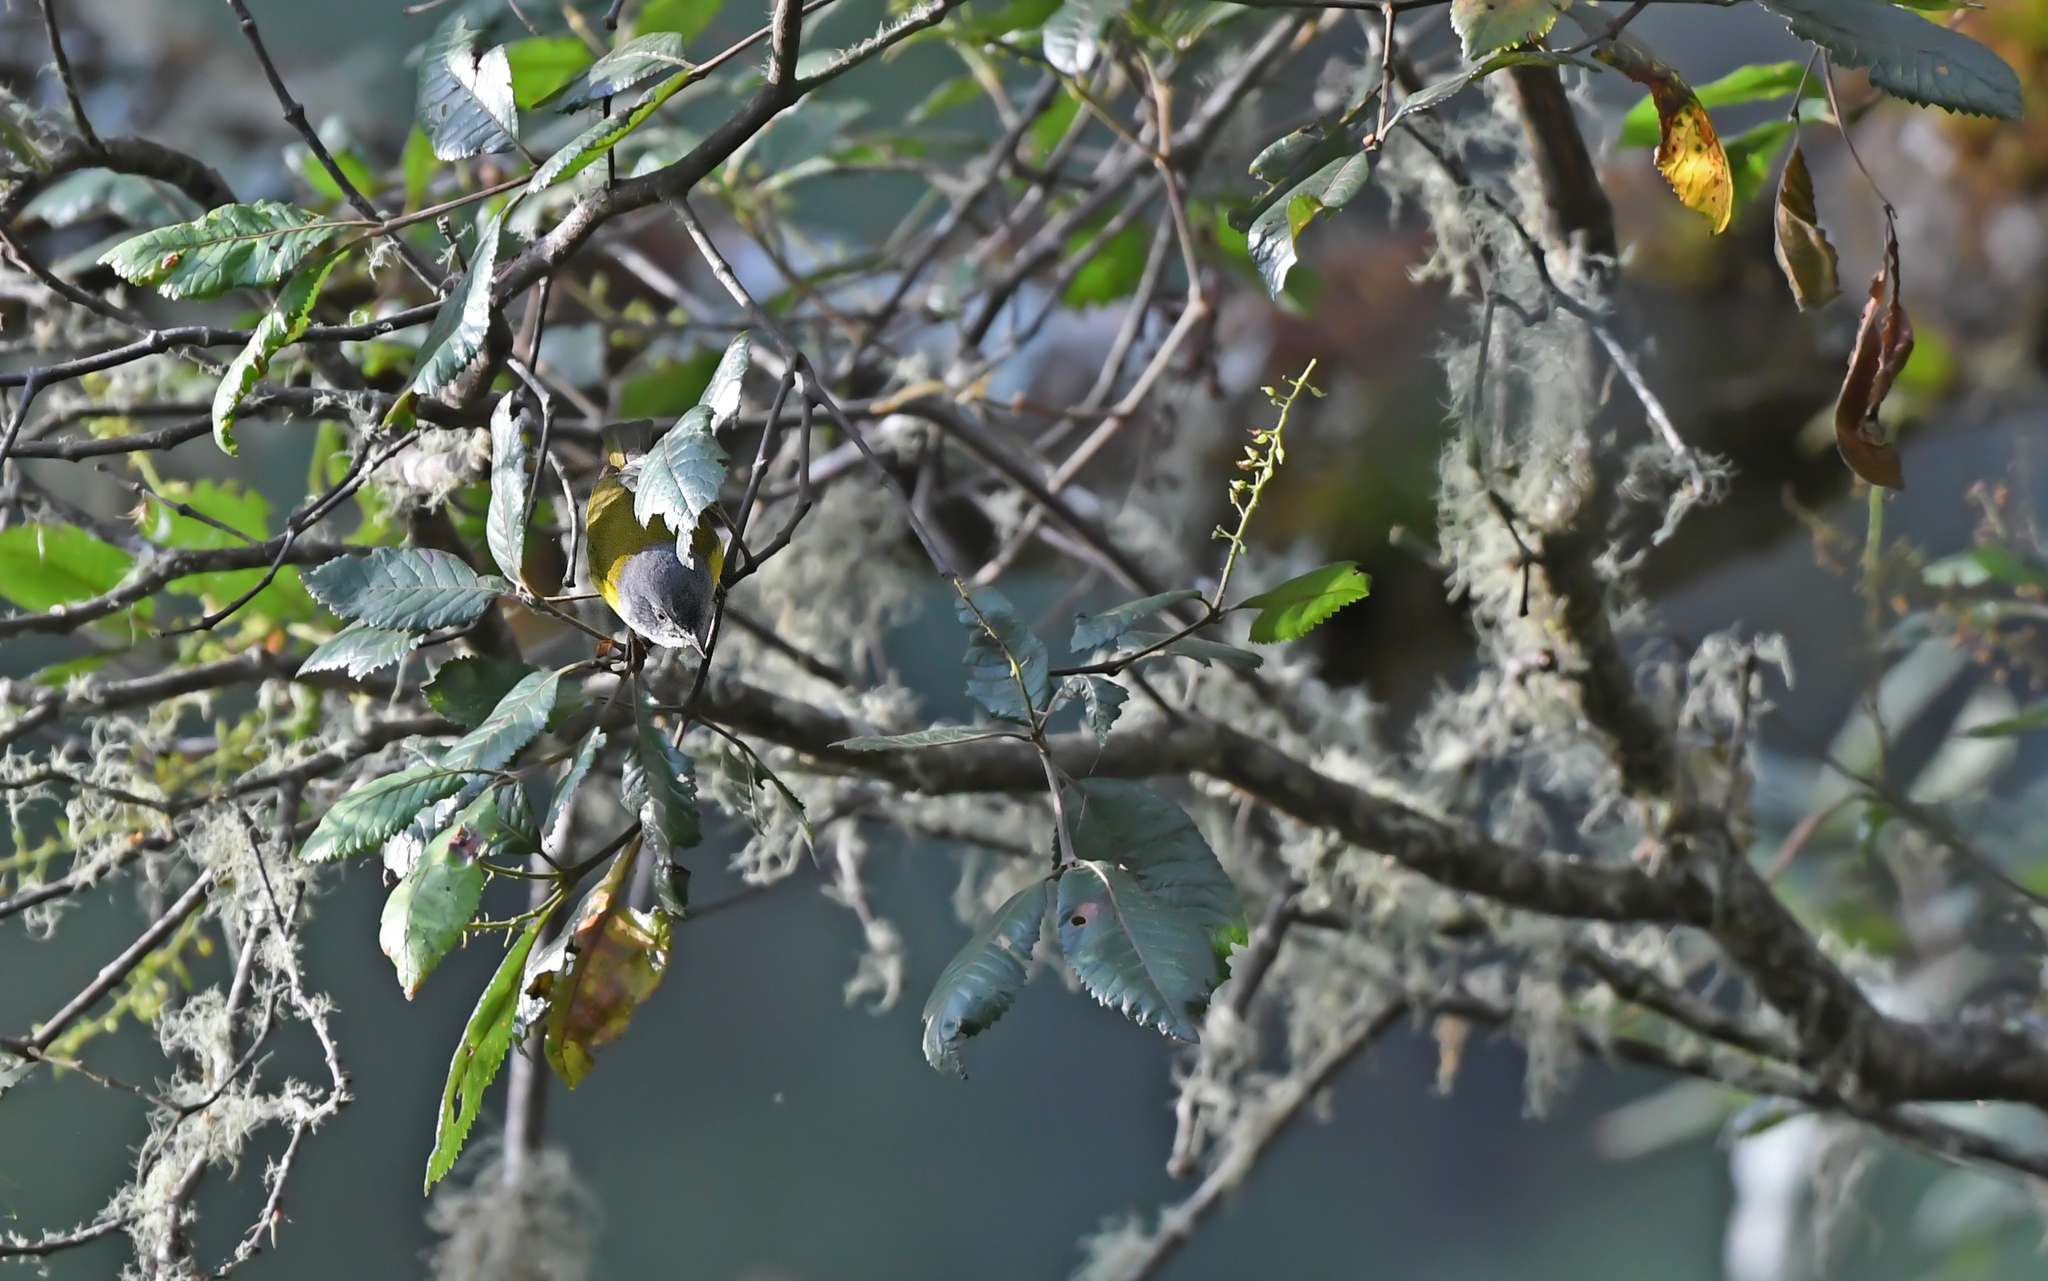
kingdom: Animalia
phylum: Chordata
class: Aves
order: Passeriformes
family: Thraupidae
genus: Conirostrum
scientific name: Conirostrum albifrons
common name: Capped conebill
